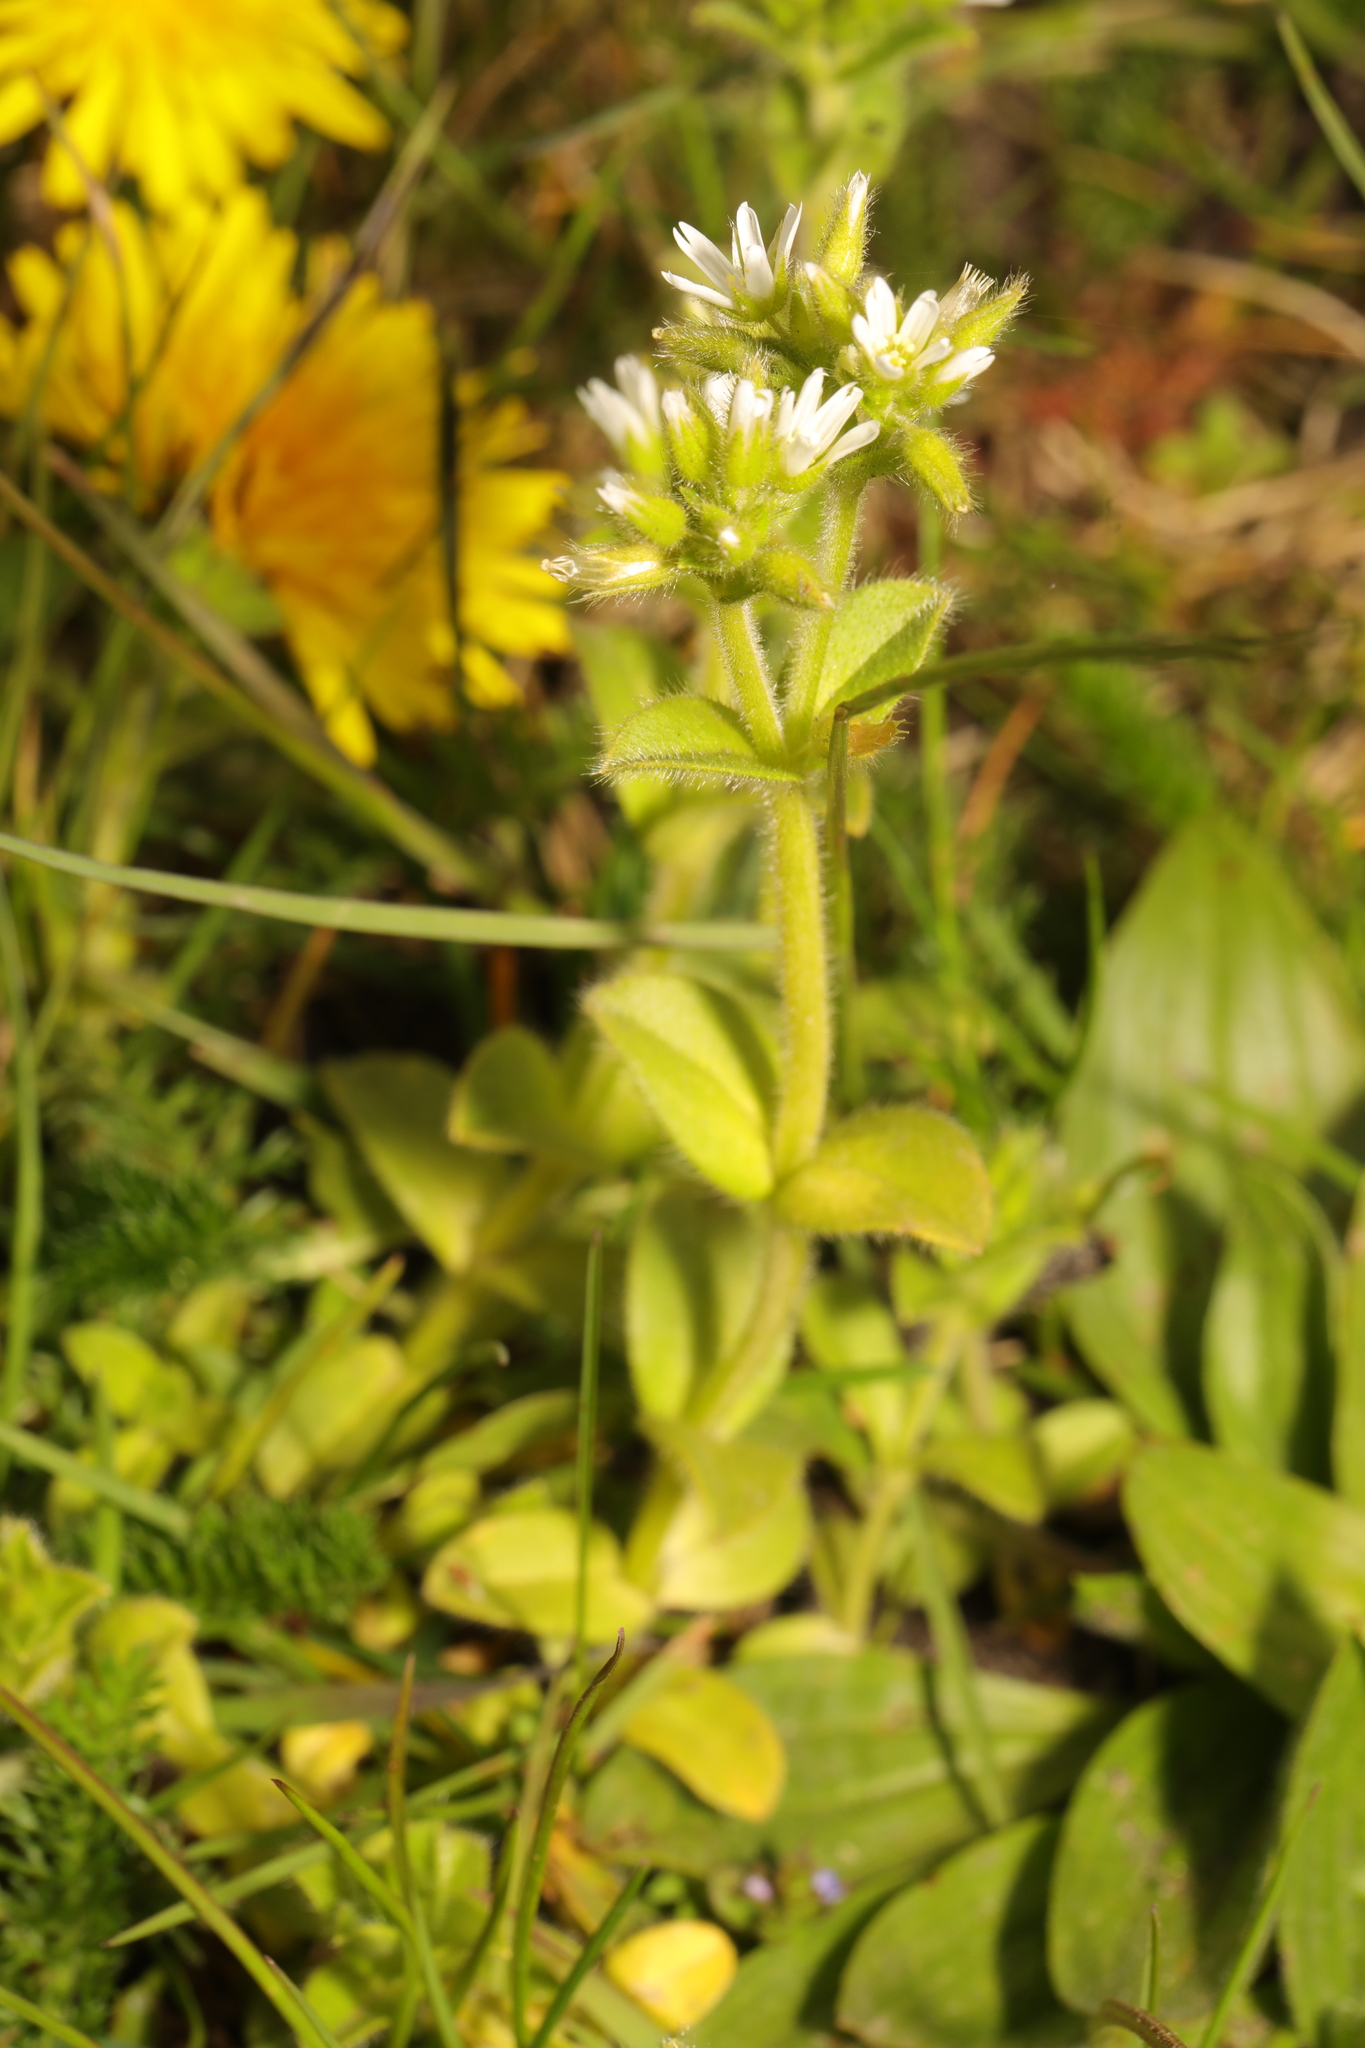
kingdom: Plantae
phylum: Tracheophyta
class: Magnoliopsida
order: Caryophyllales
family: Caryophyllaceae
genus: Cerastium
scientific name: Cerastium glomeratum
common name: Sticky chickweed
